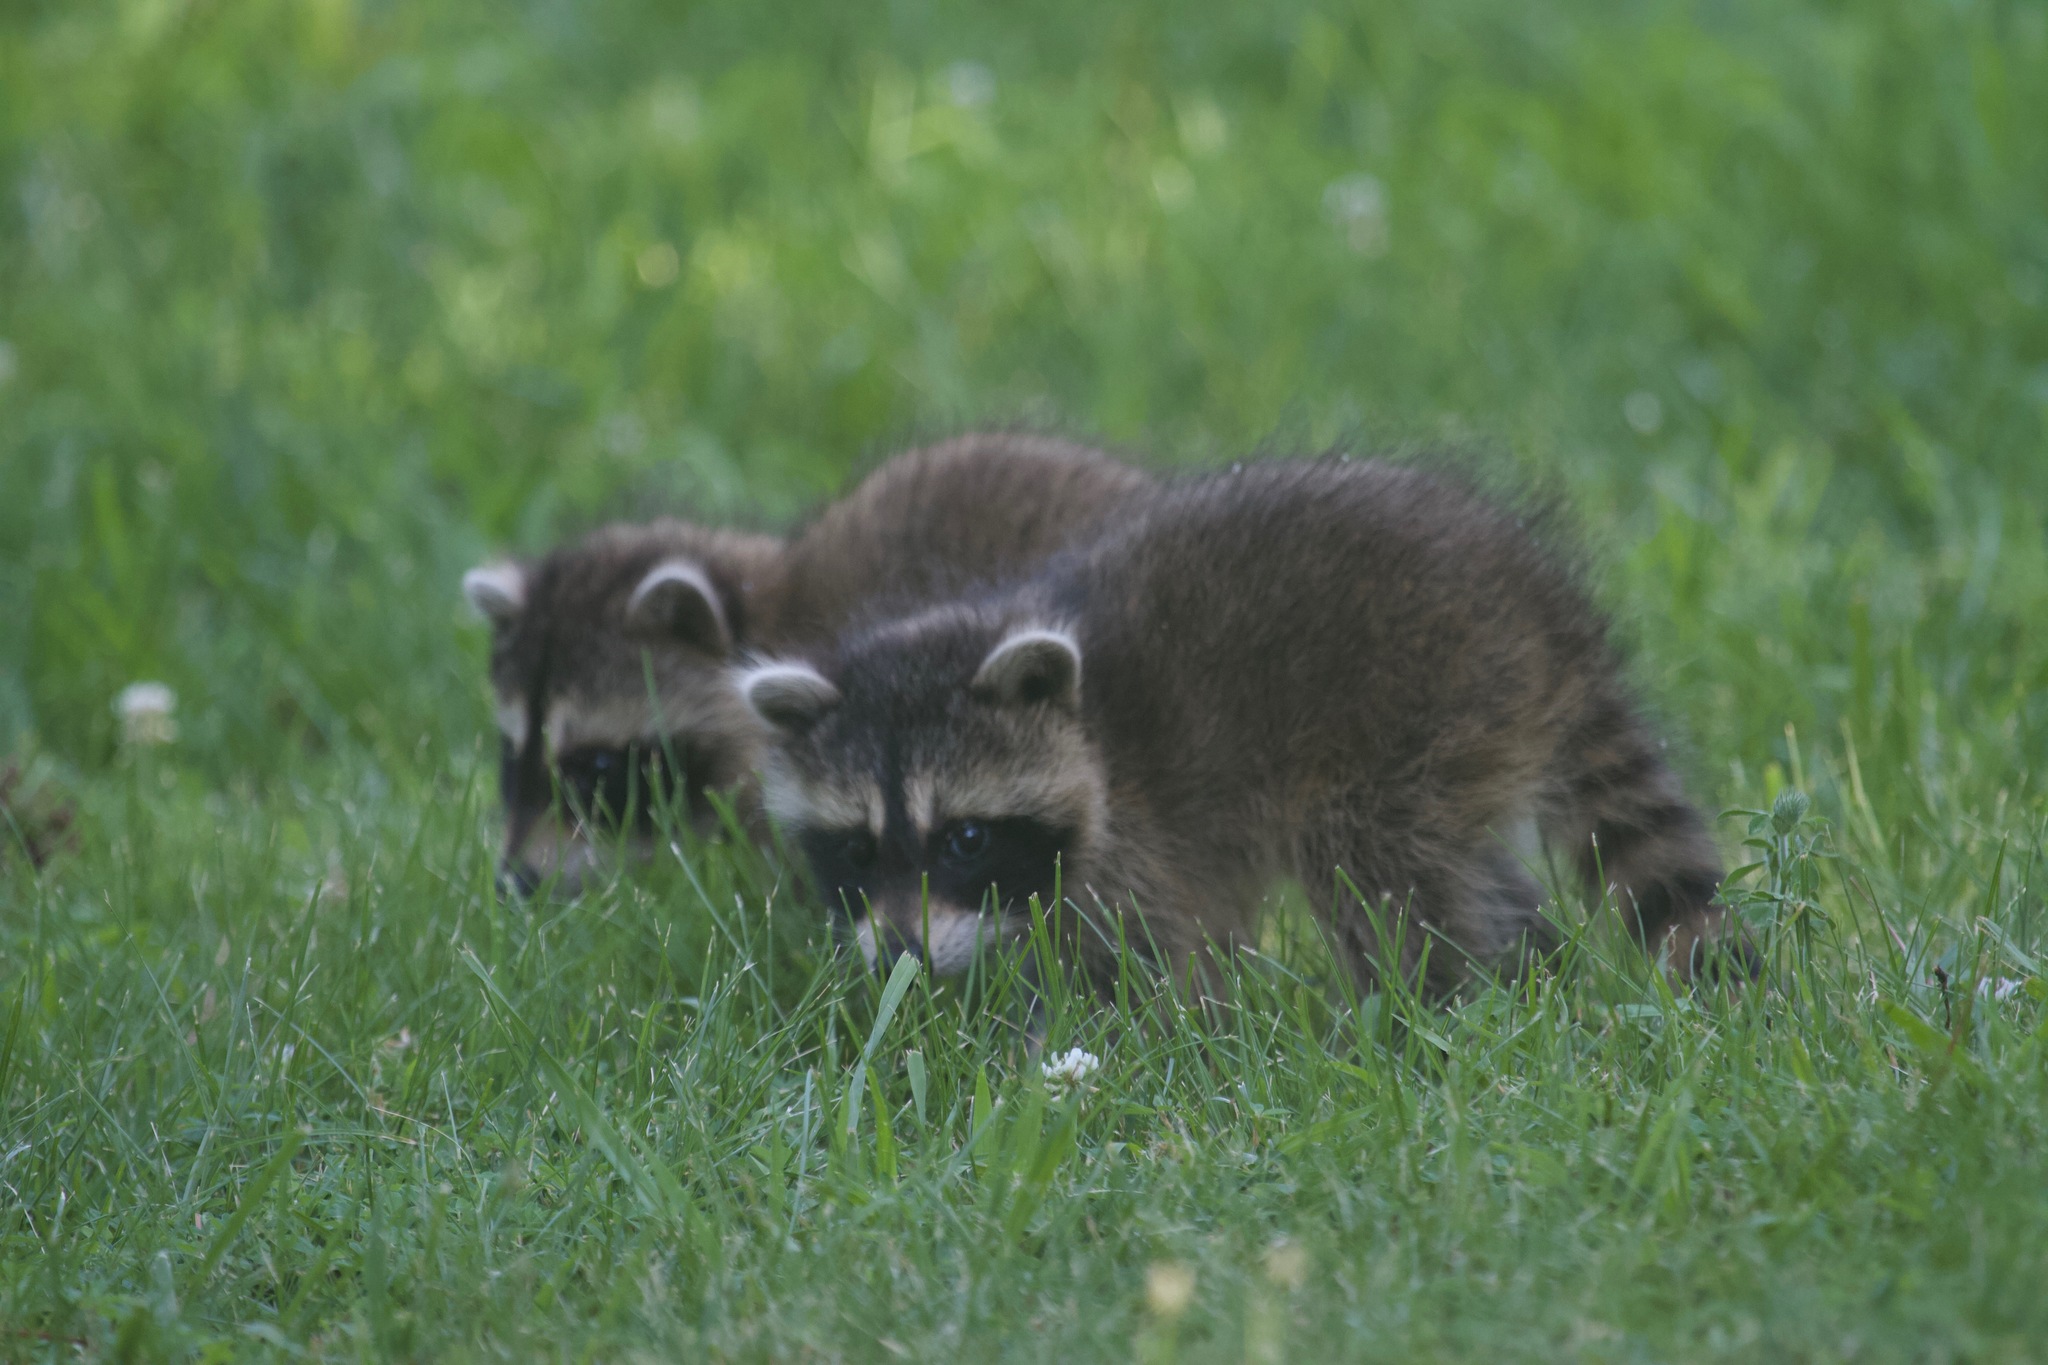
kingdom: Animalia
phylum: Chordata
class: Mammalia
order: Carnivora
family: Procyonidae
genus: Procyon
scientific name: Procyon lotor
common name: Raccoon
